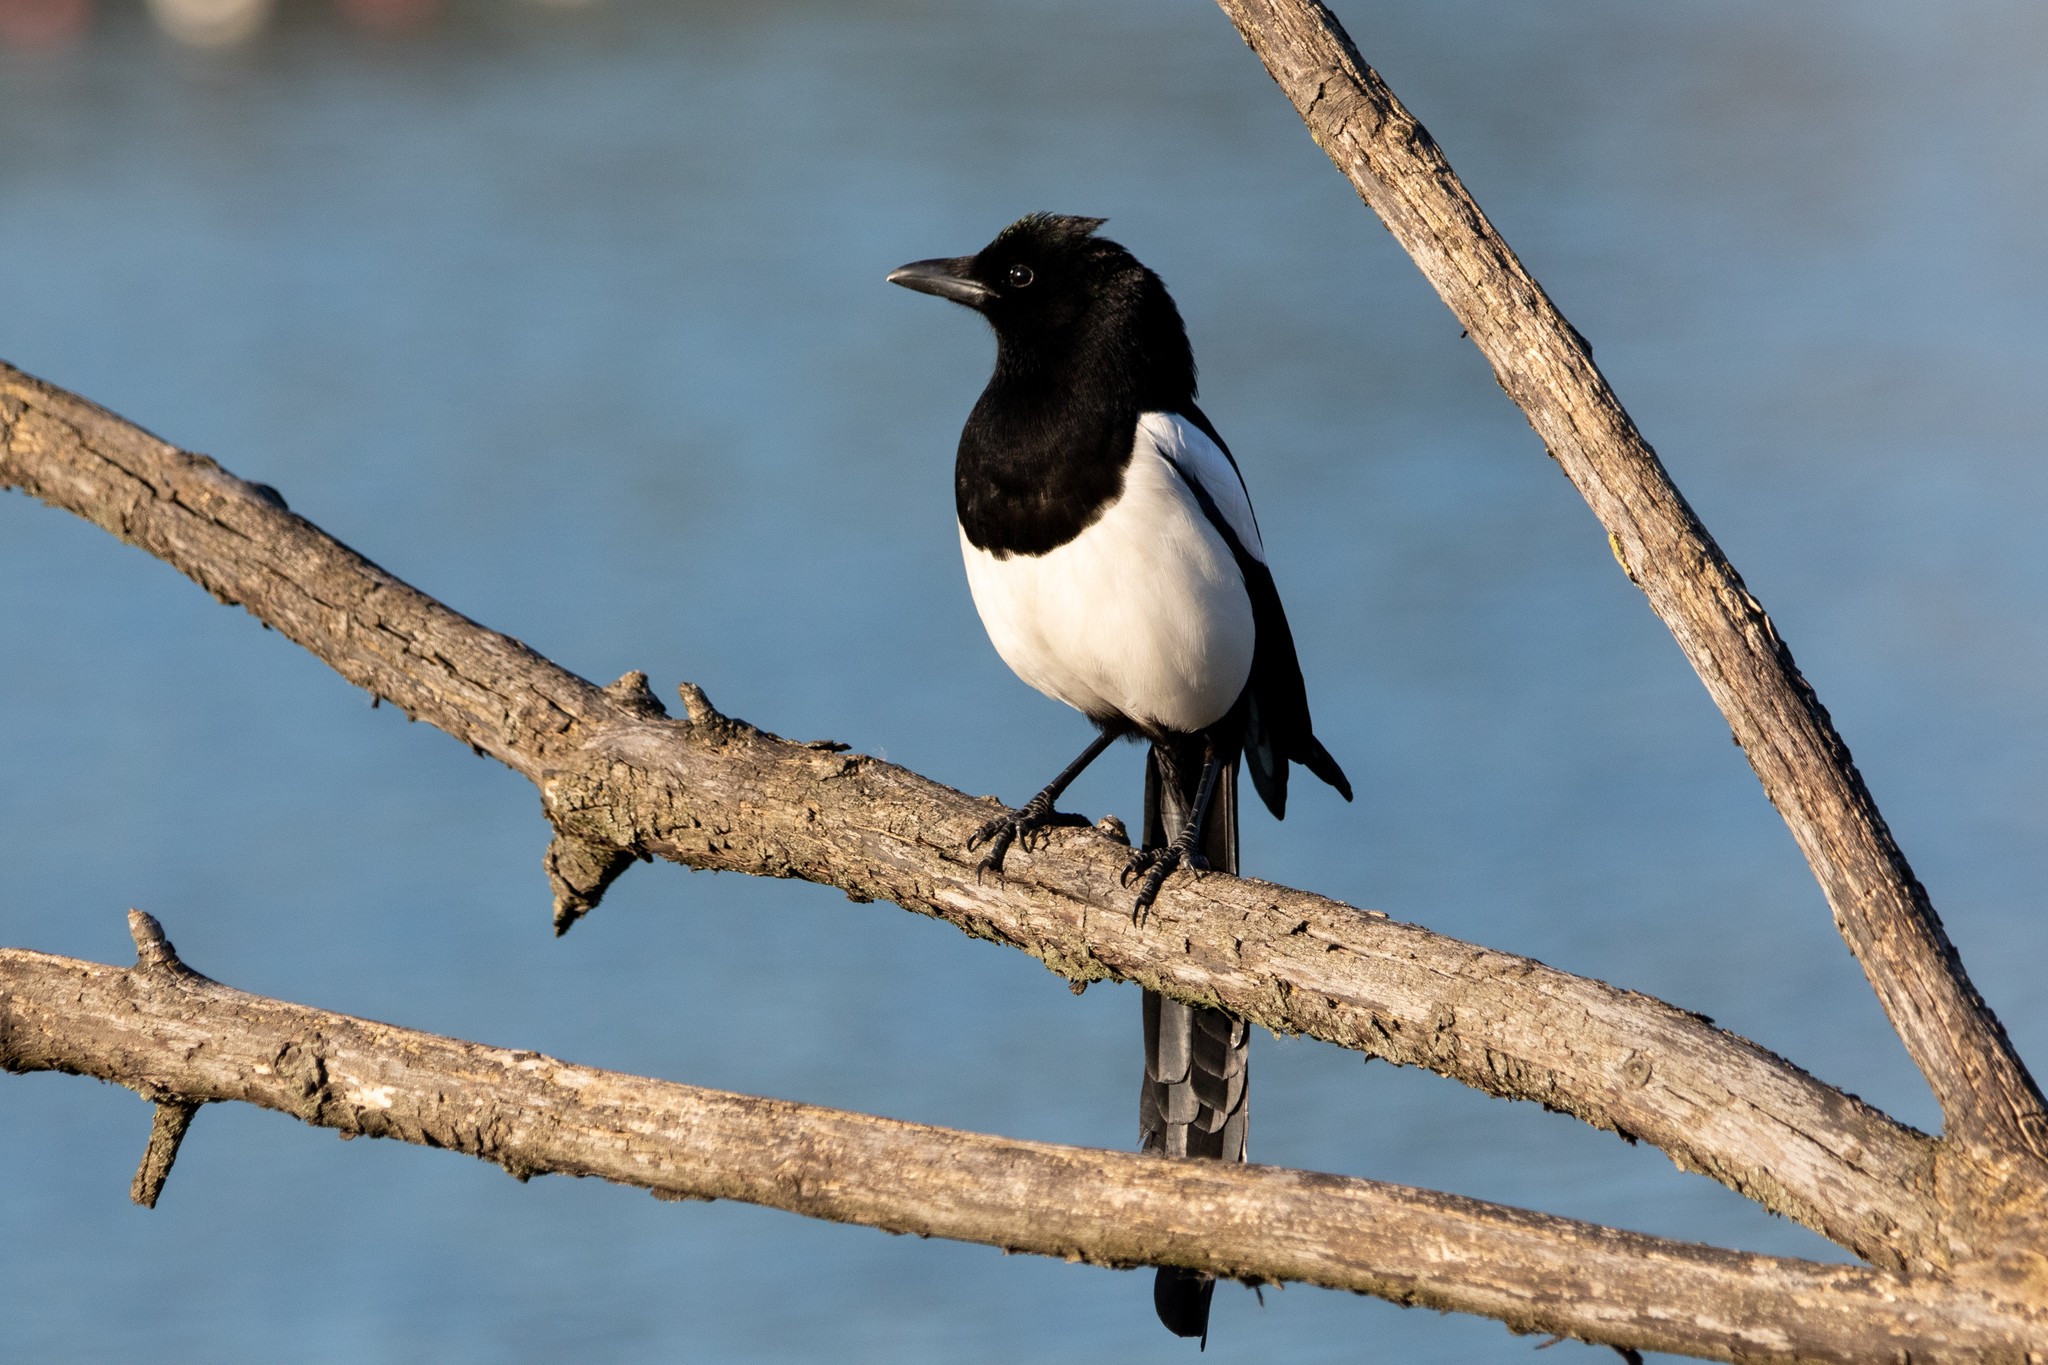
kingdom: Animalia
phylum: Chordata
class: Aves
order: Passeriformes
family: Corvidae
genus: Pica
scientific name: Pica pica
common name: Eurasian magpie
